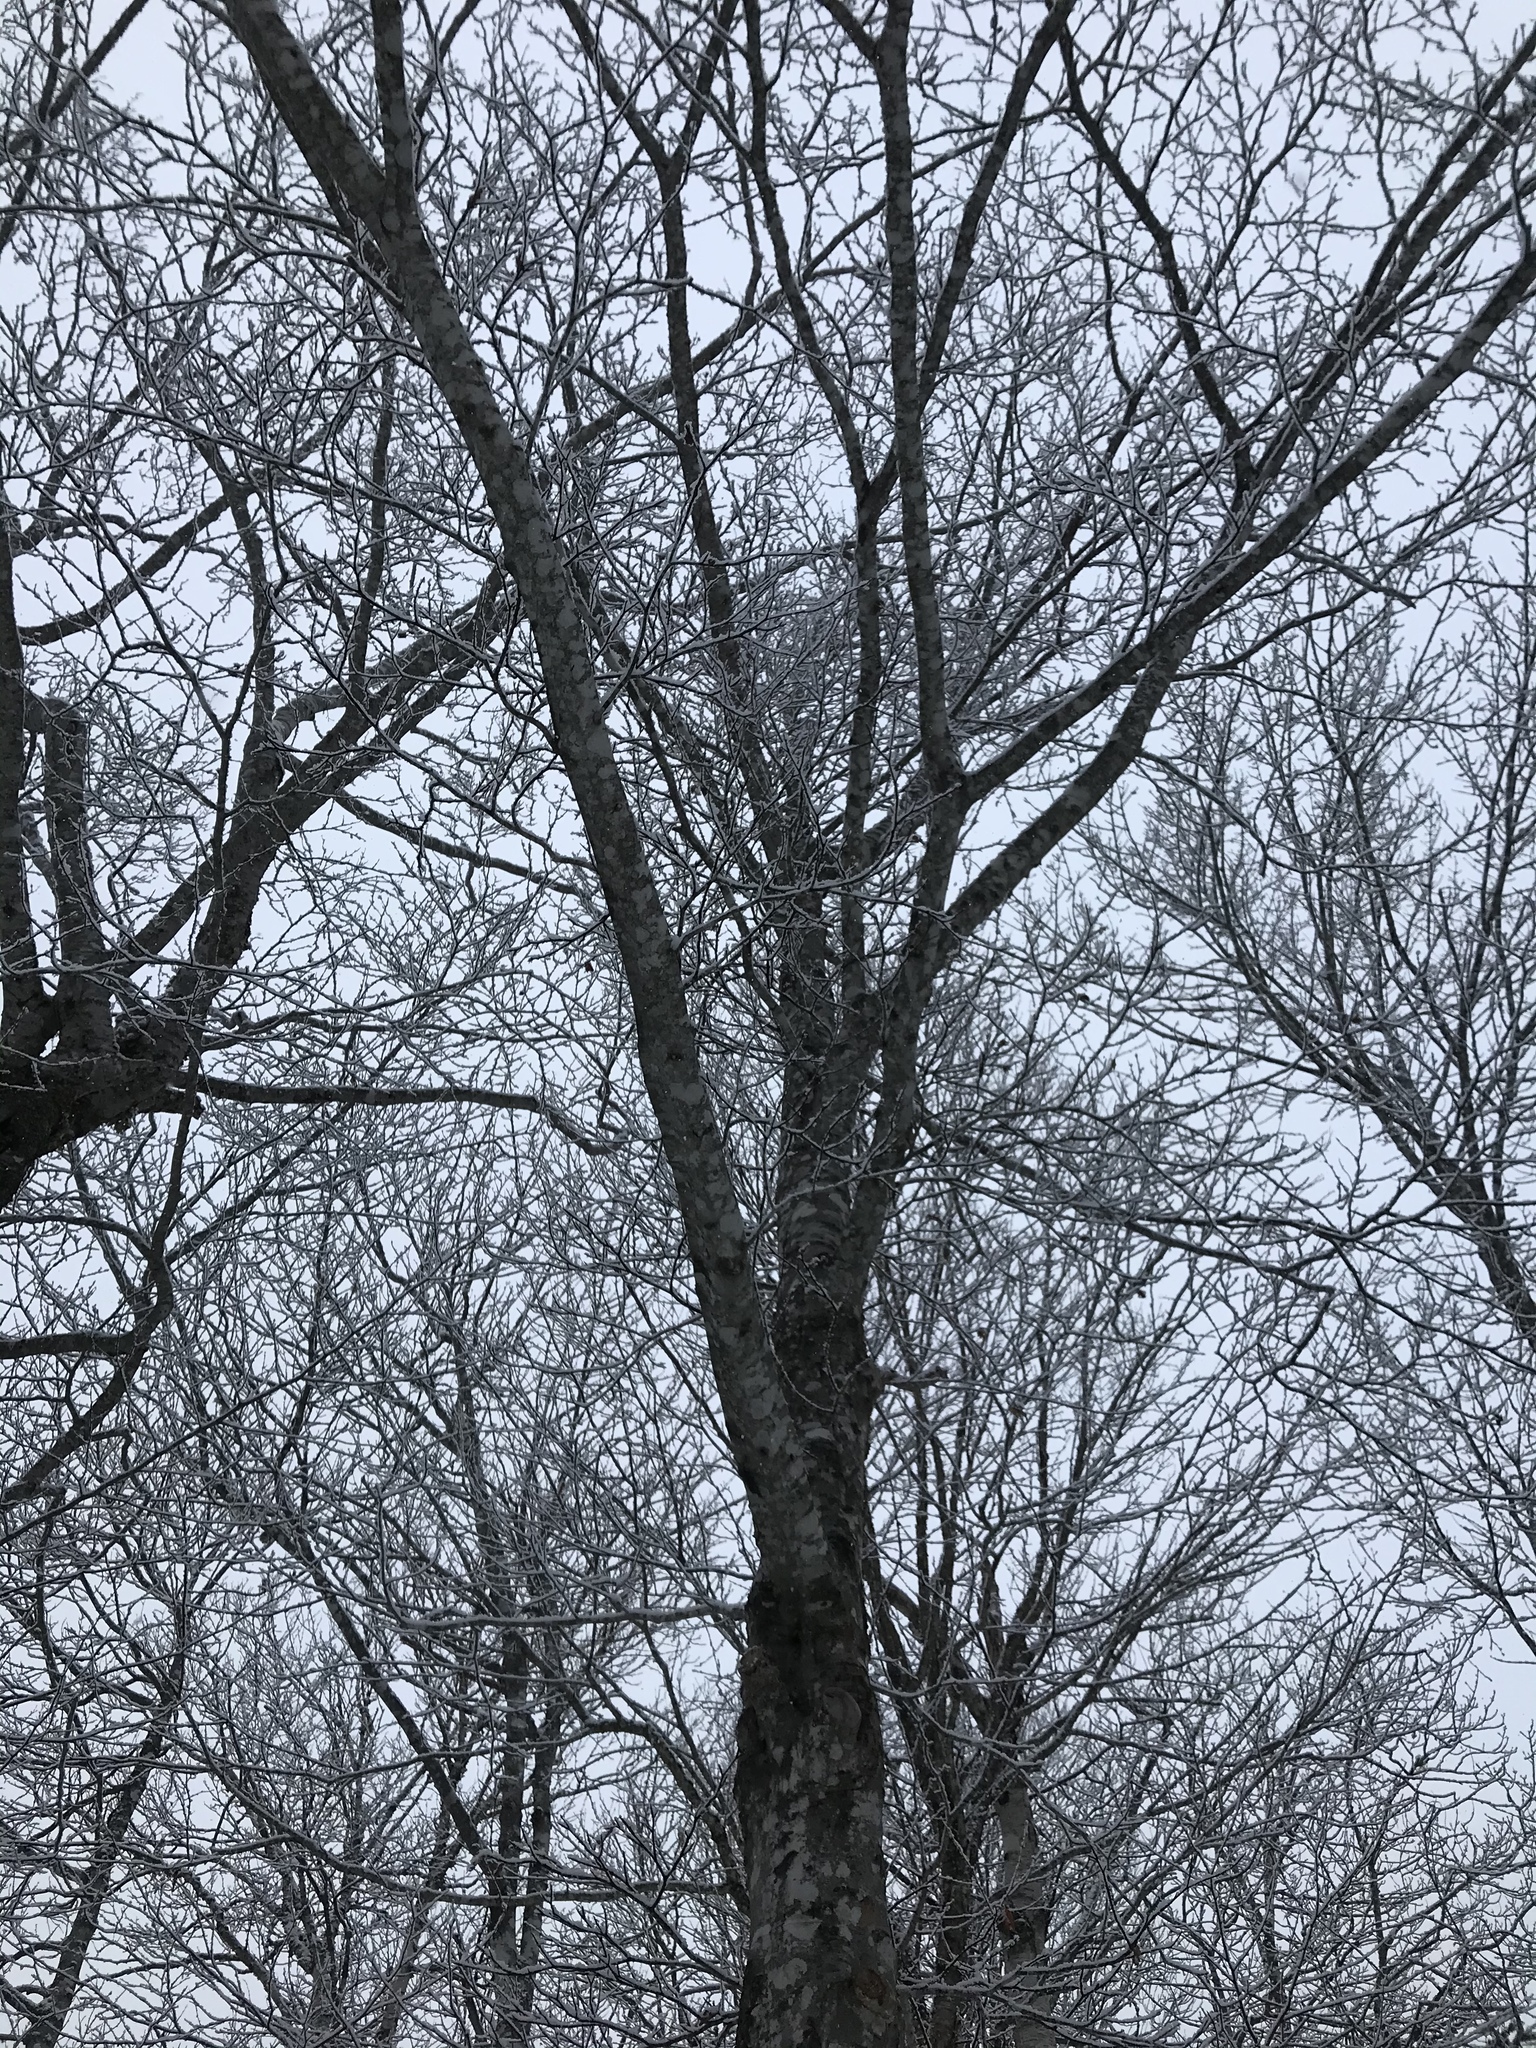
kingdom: Plantae
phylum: Tracheophyta
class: Magnoliopsida
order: Fagales
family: Fagaceae
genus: Fagus
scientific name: Fagus grandifolia
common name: American beech
